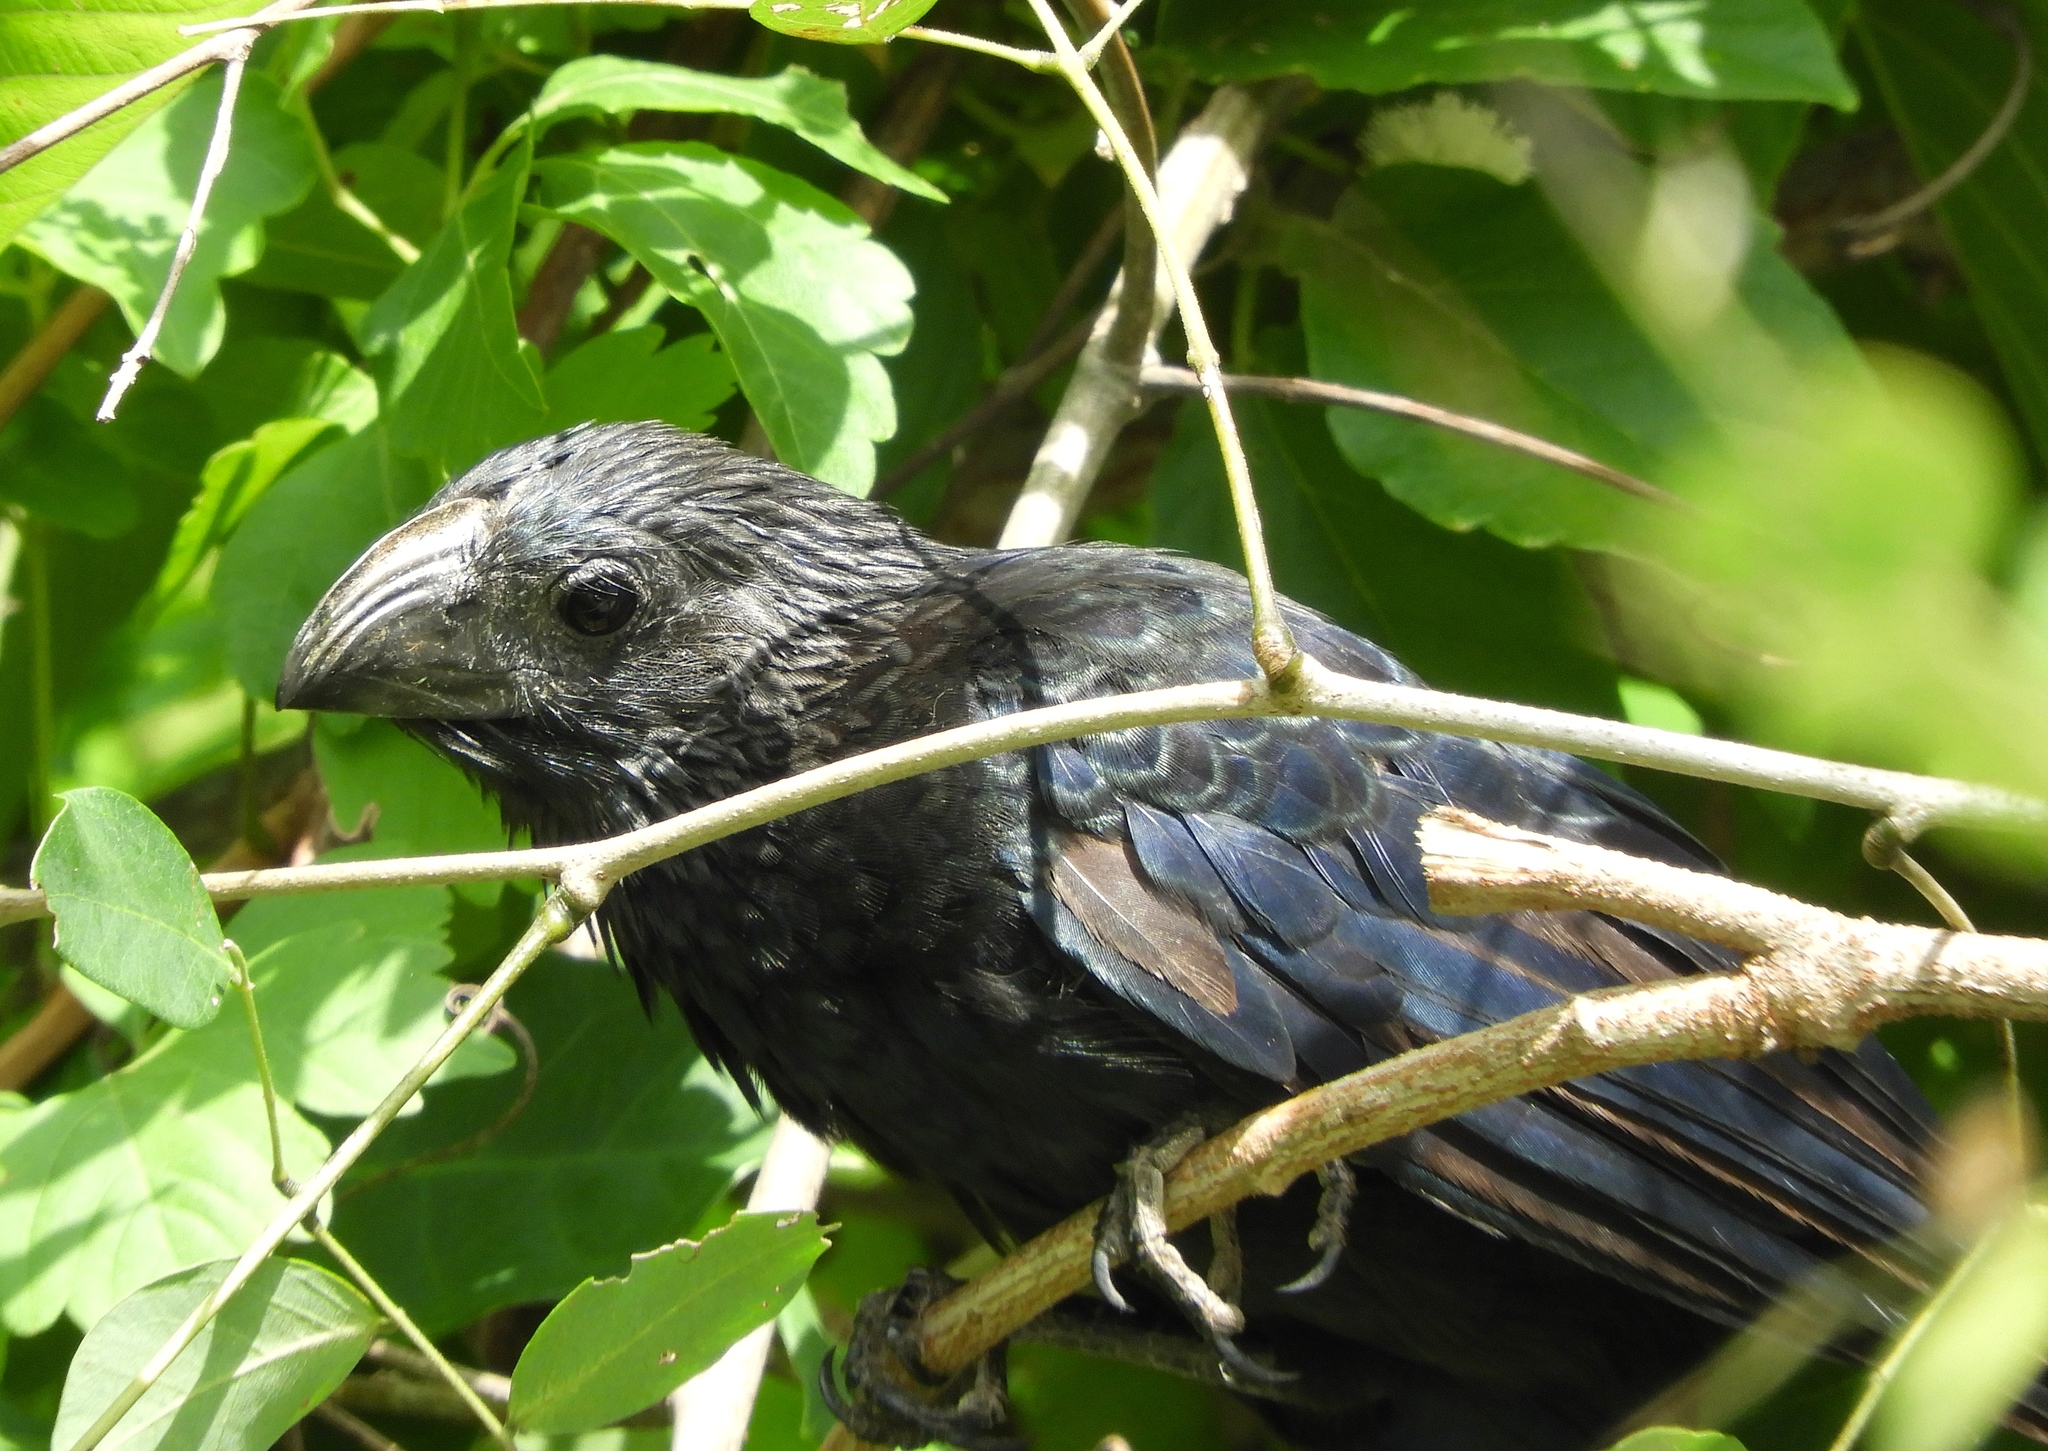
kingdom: Animalia
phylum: Chordata
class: Aves
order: Cuculiformes
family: Cuculidae
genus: Crotophaga
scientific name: Crotophaga sulcirostris
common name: Groove-billed ani
